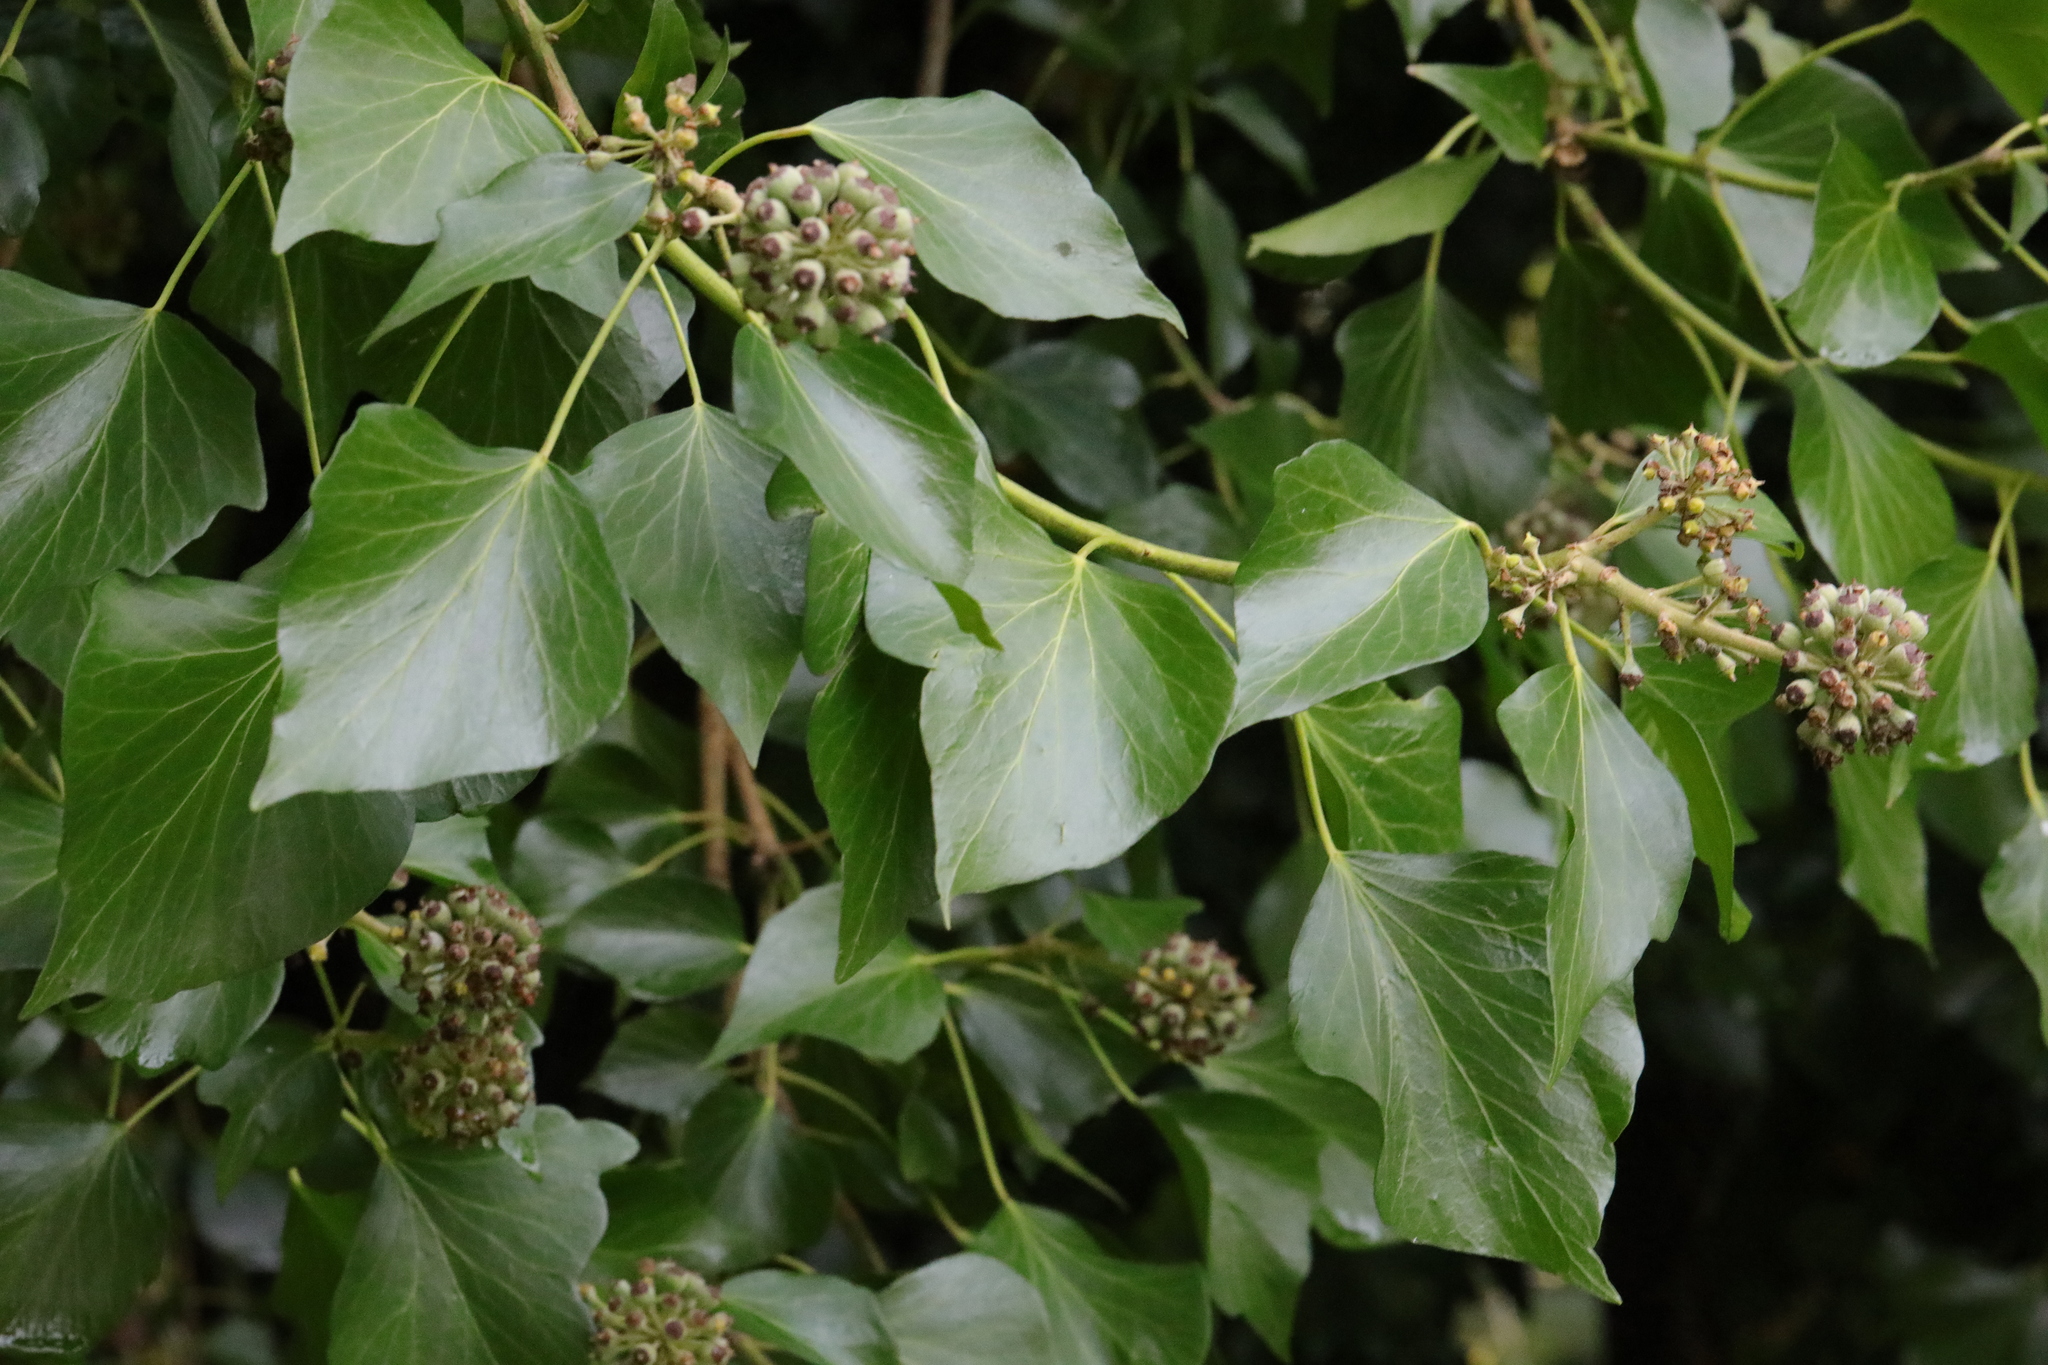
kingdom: Plantae
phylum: Tracheophyta
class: Magnoliopsida
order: Apiales
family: Araliaceae
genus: Hedera
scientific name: Hedera helix
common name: Ivy
